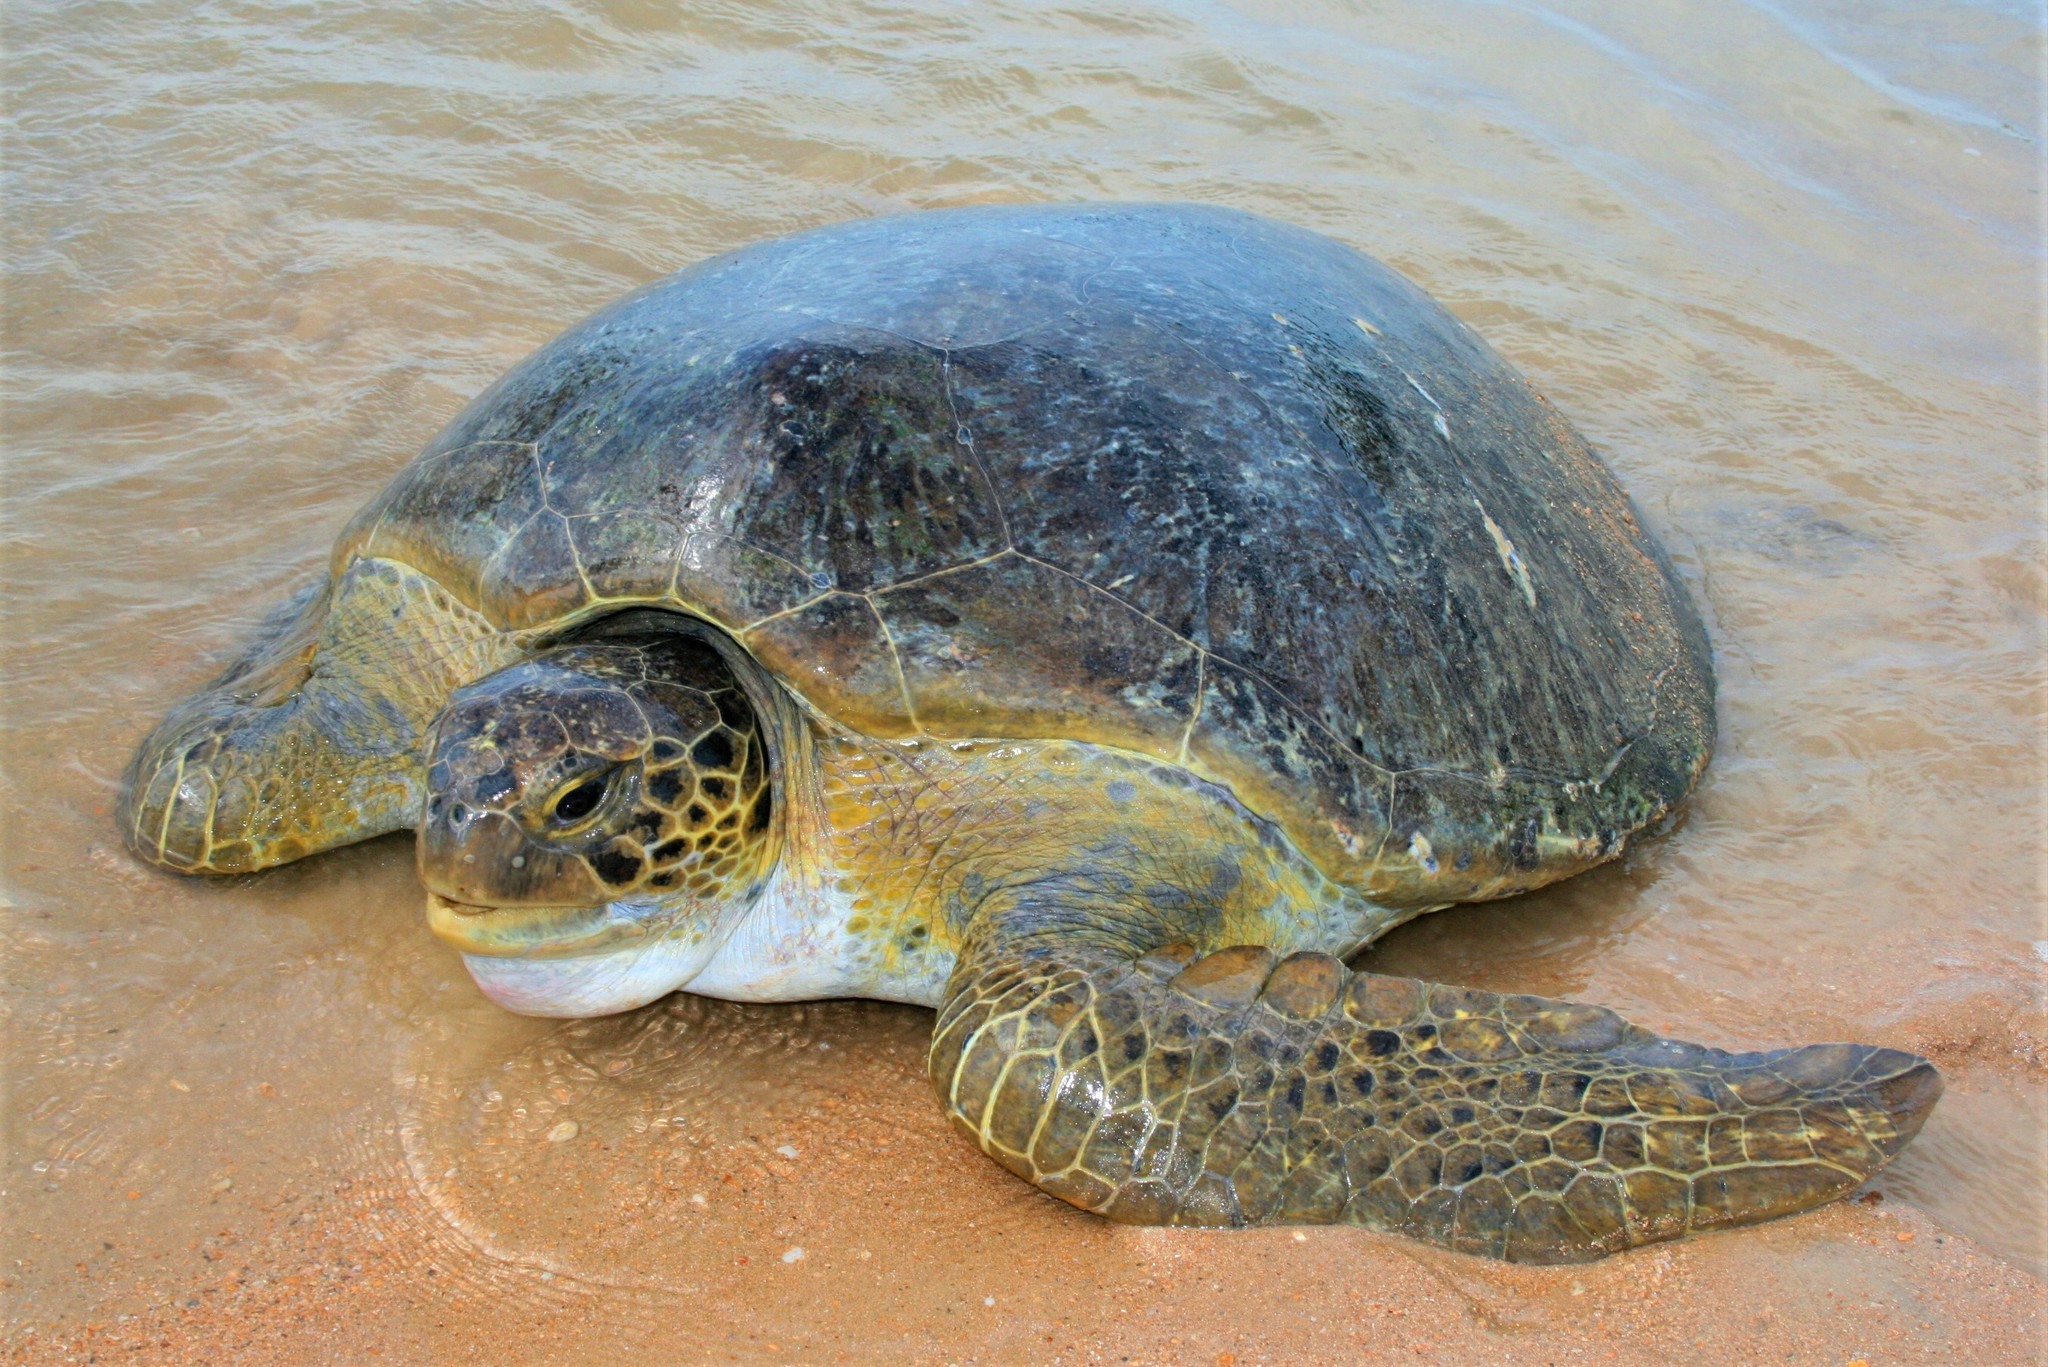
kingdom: Animalia
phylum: Chordata
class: Testudines
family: Cheloniidae
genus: Chelonia
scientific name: Chelonia mydas
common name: Green turtle
